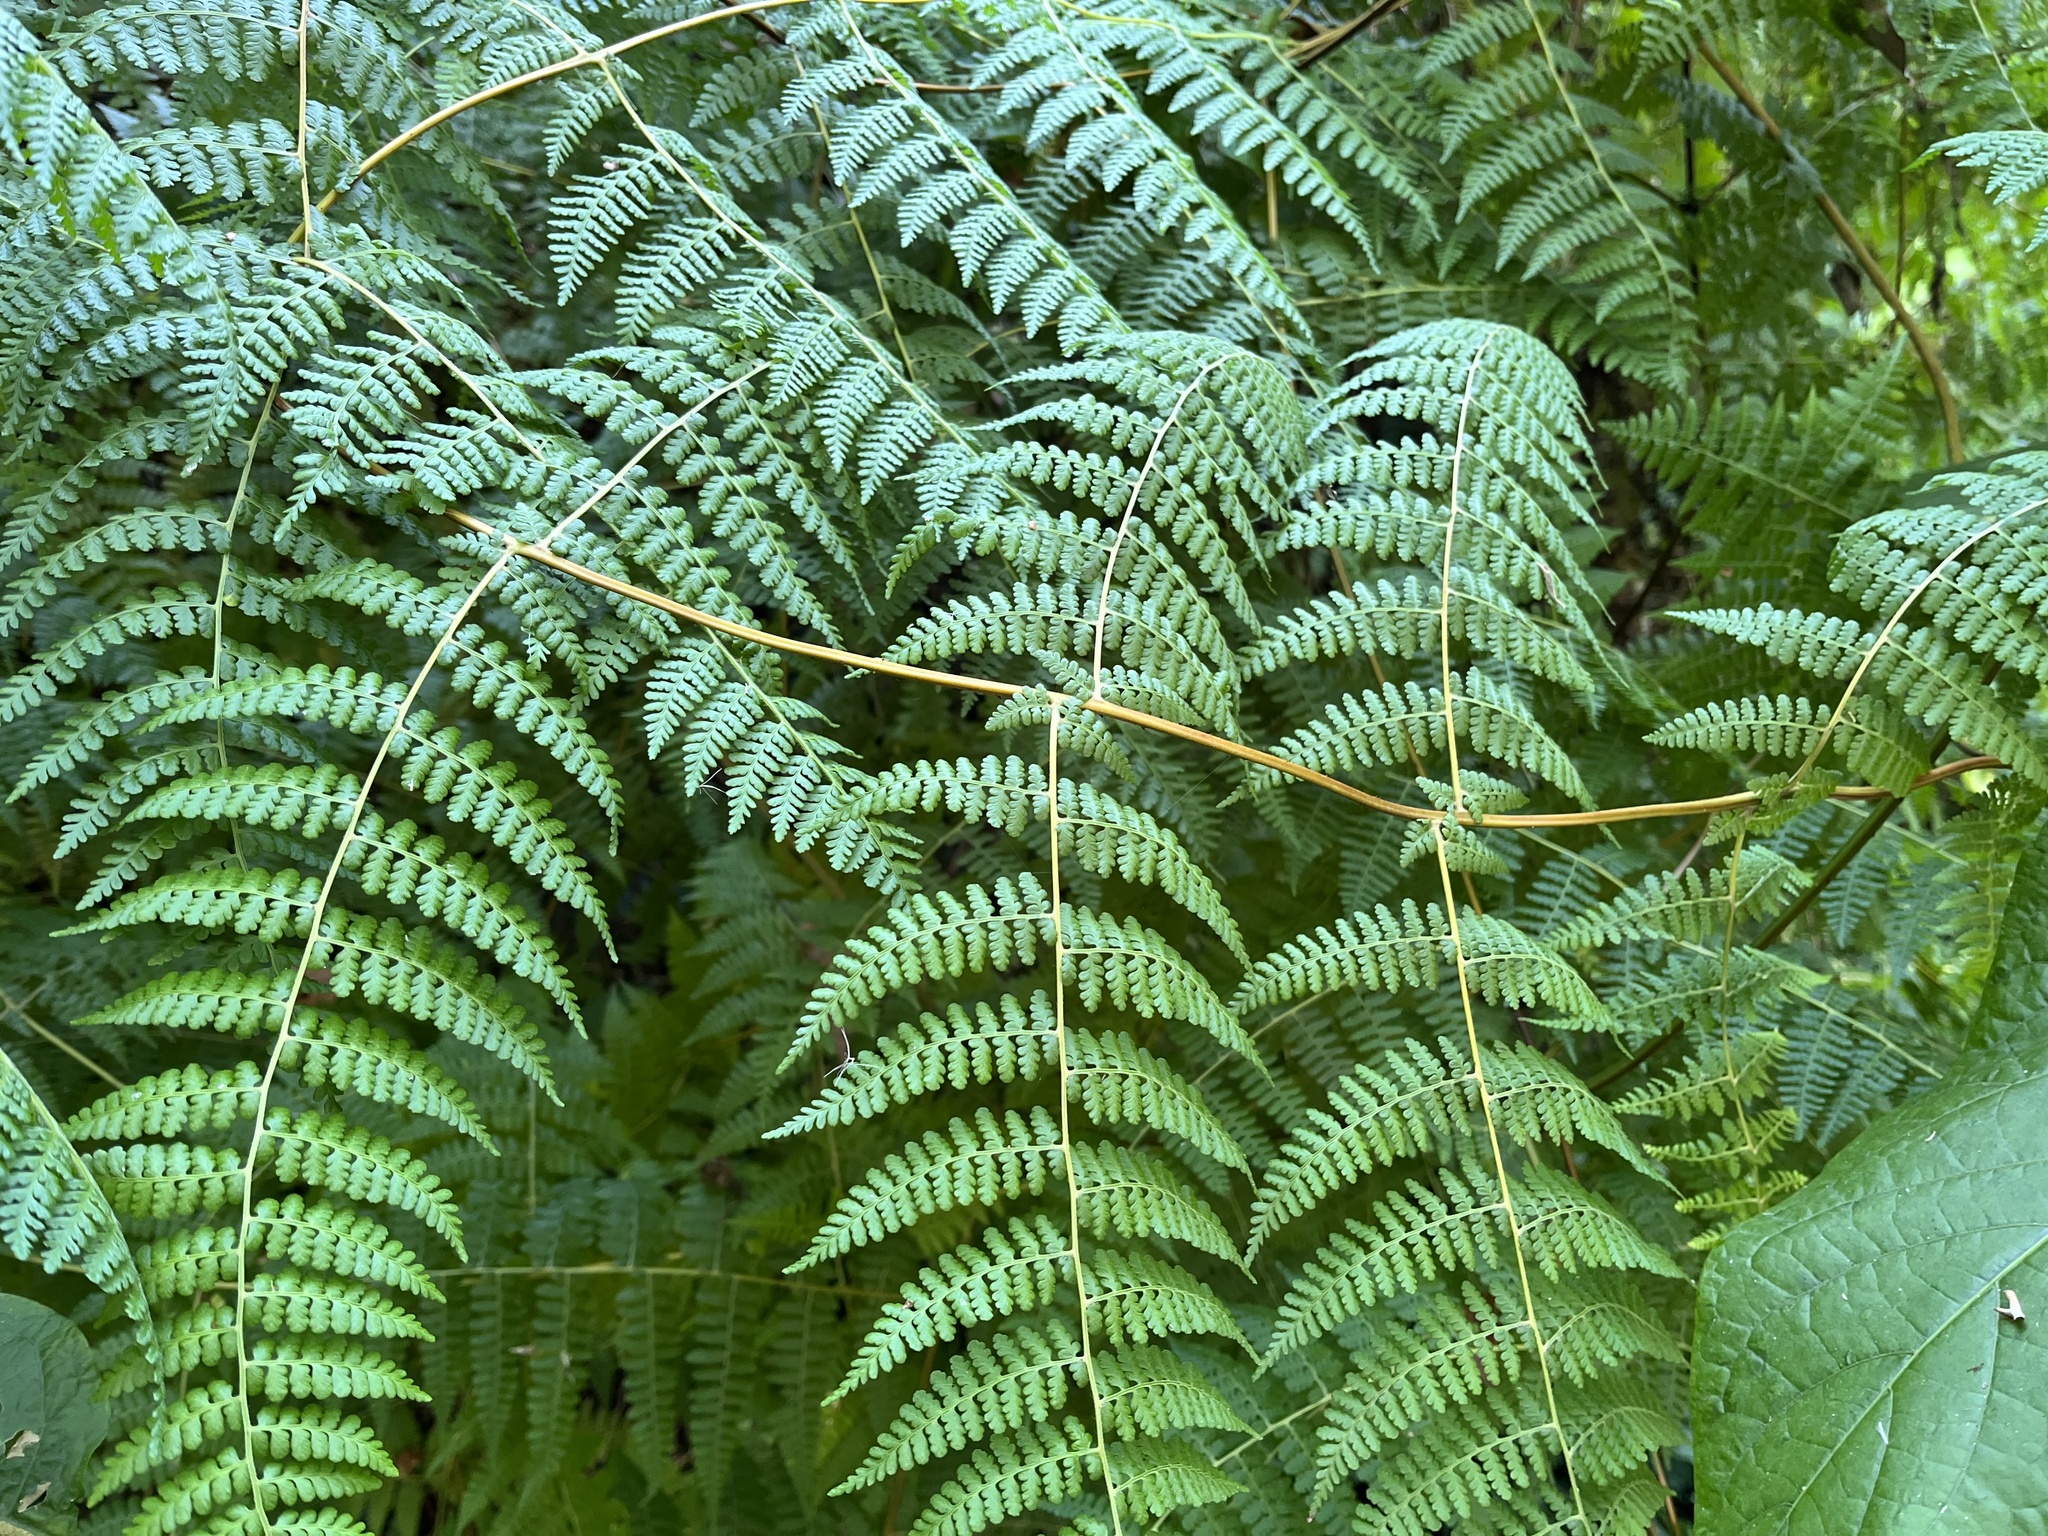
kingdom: Plantae
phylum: Tracheophyta
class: Polypodiopsida
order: Polypodiales
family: Dennstaedtiaceae
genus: Dennstaedtia
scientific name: Dennstaedtia scandens
